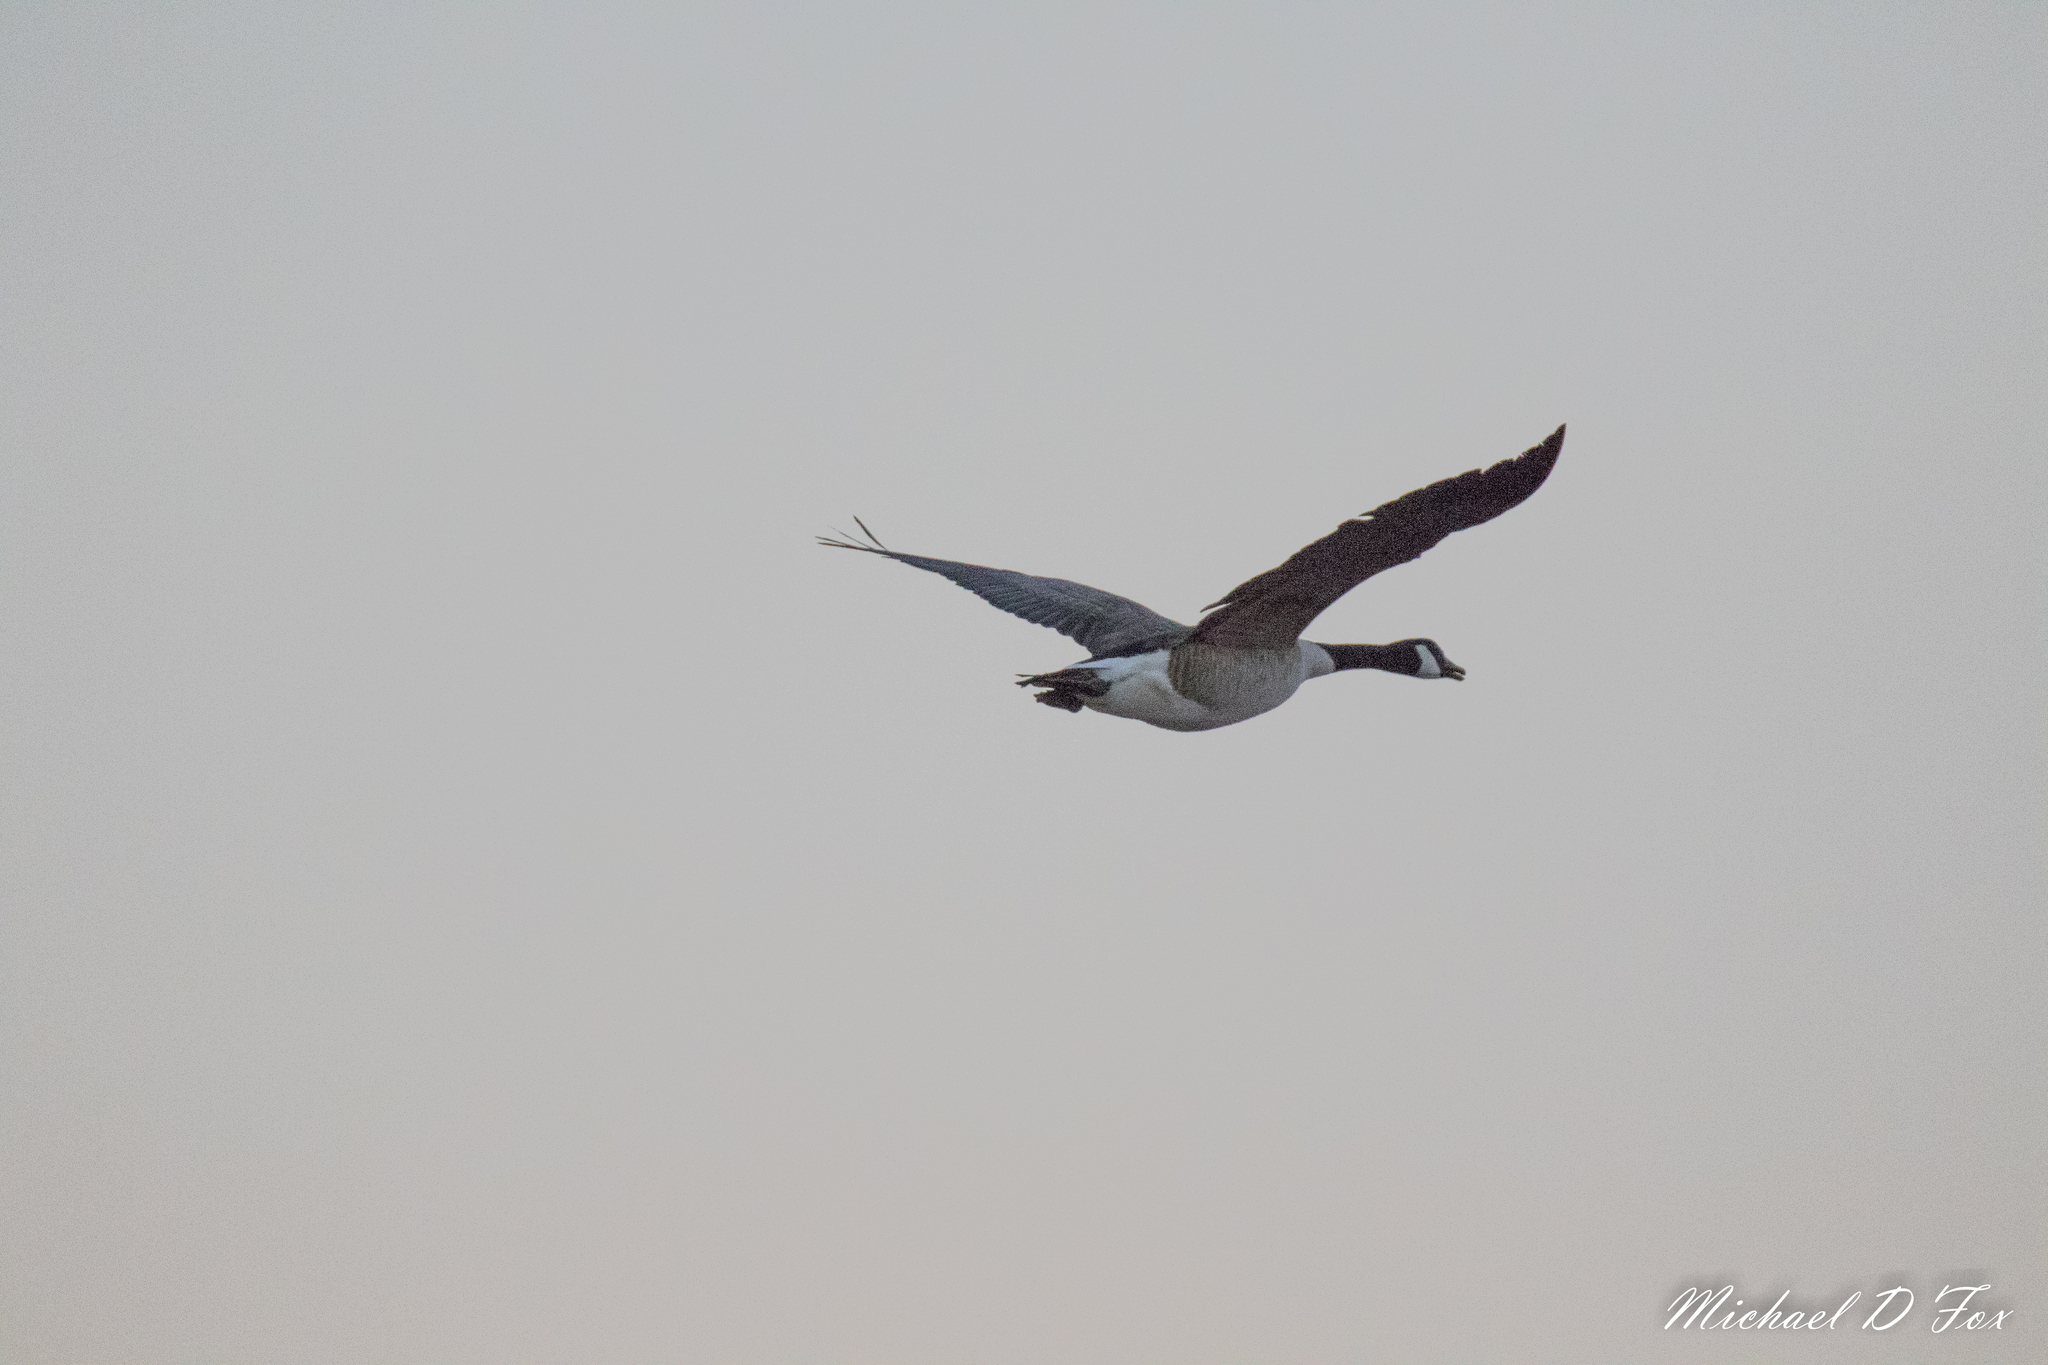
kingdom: Animalia
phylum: Chordata
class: Aves
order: Anseriformes
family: Anatidae
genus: Branta
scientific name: Branta canadensis
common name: Canada goose
